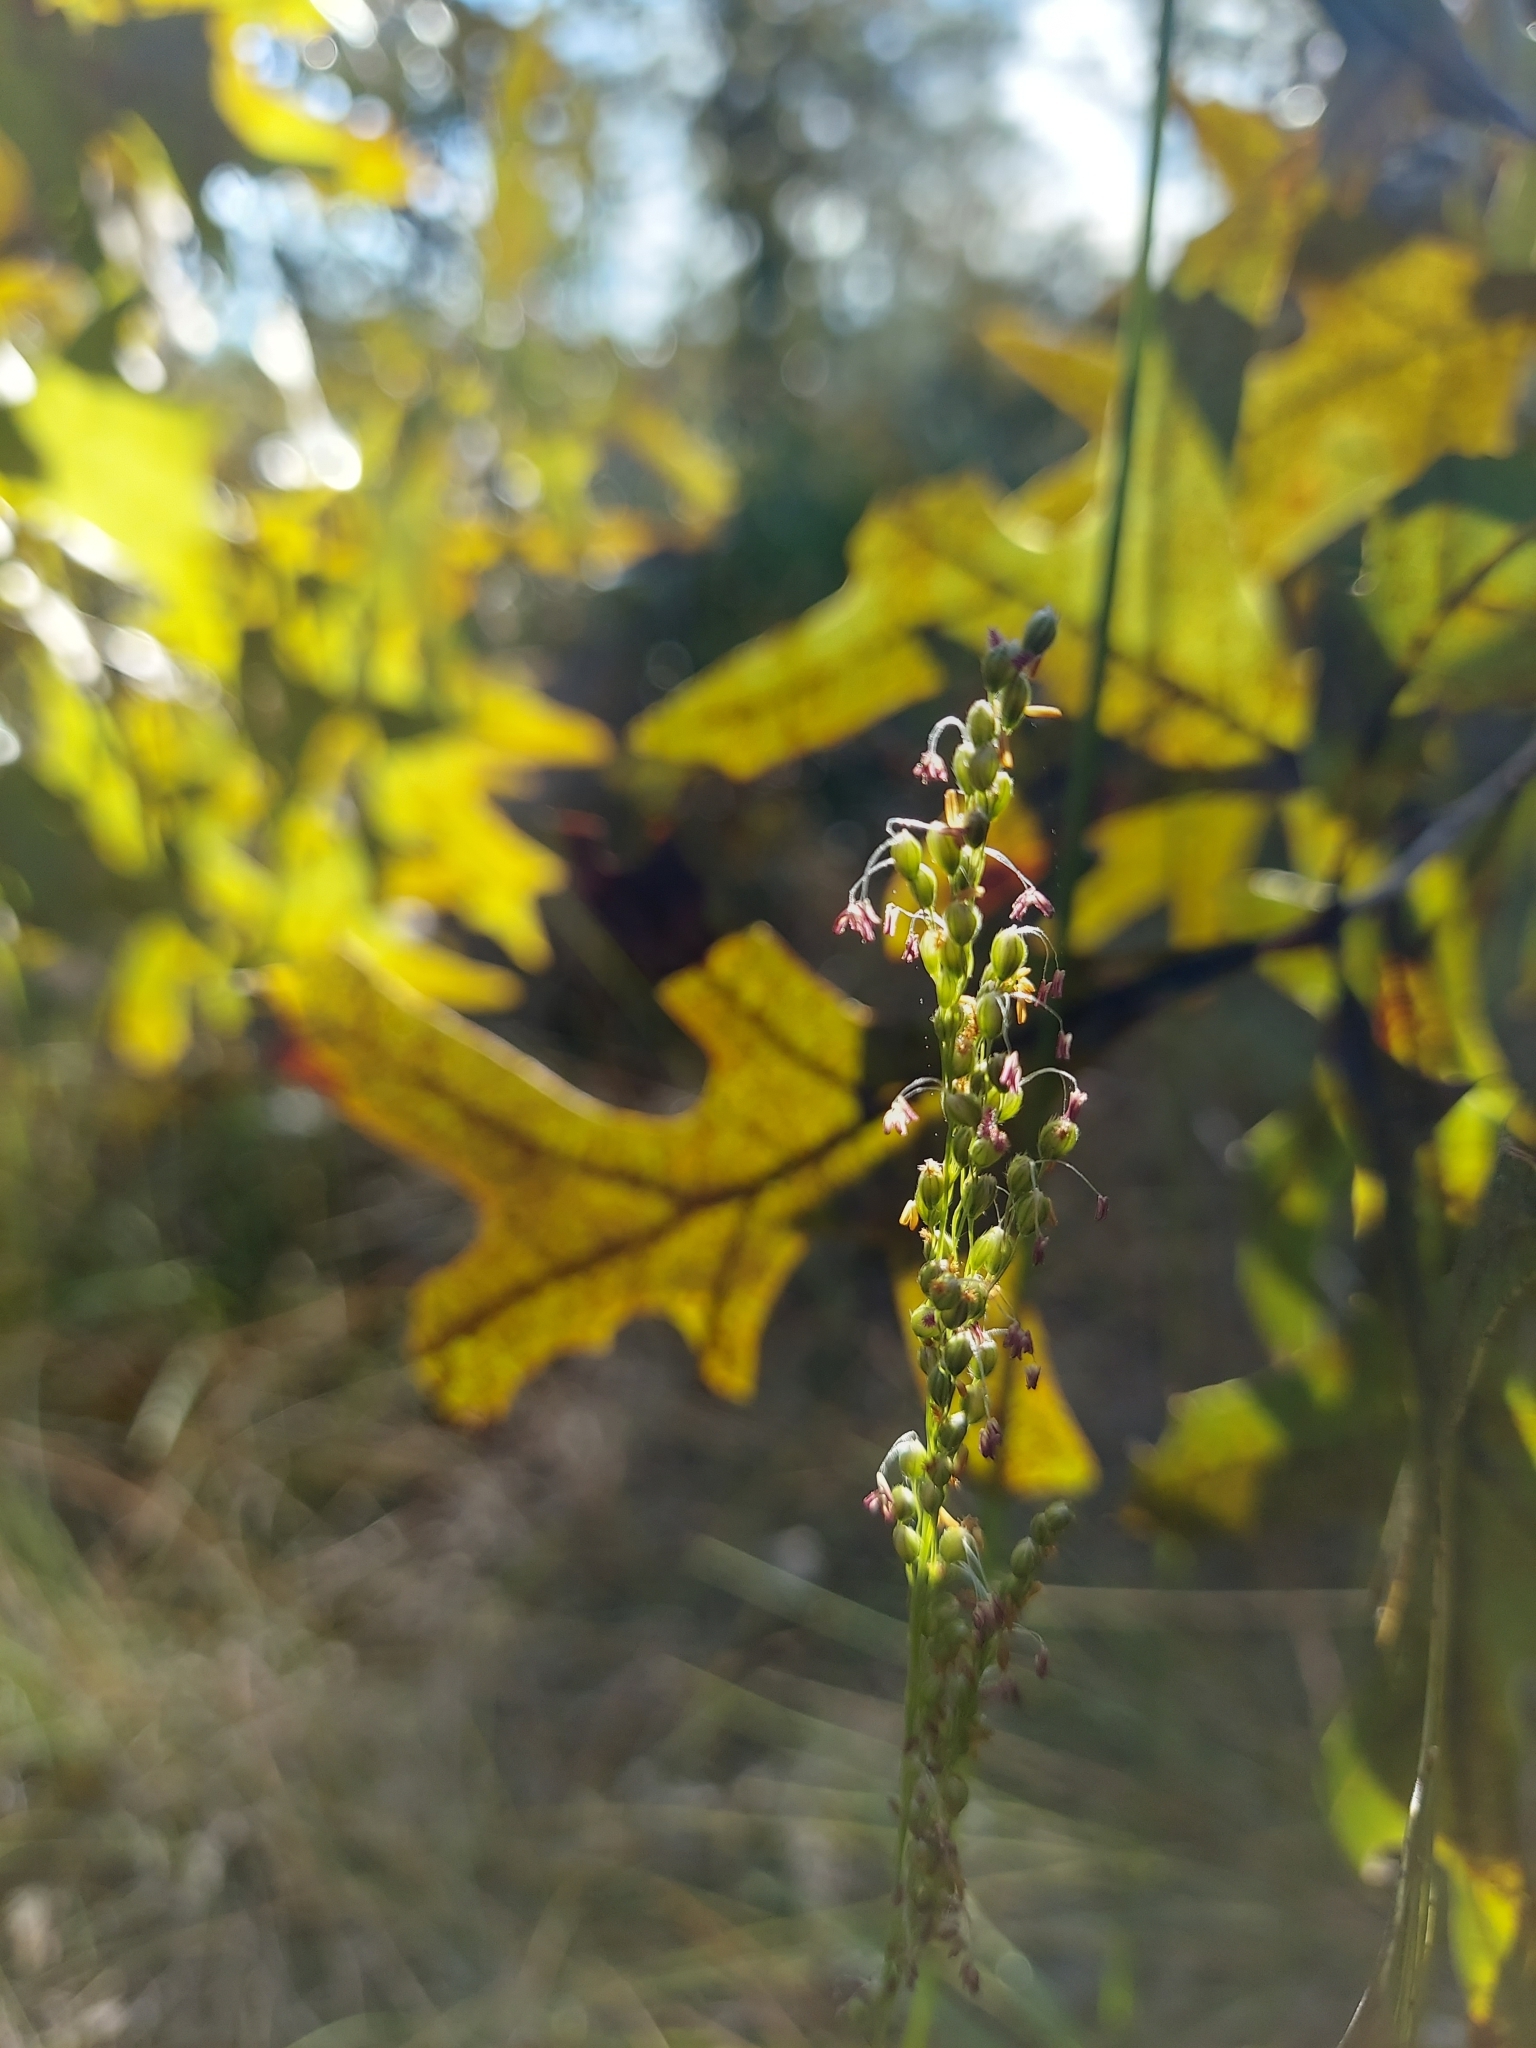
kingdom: Plantae
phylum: Tracheophyta
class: Liliopsida
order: Poales
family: Poaceae
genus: Anthenantia
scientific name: Anthenantia villosa
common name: Green silkyscale
